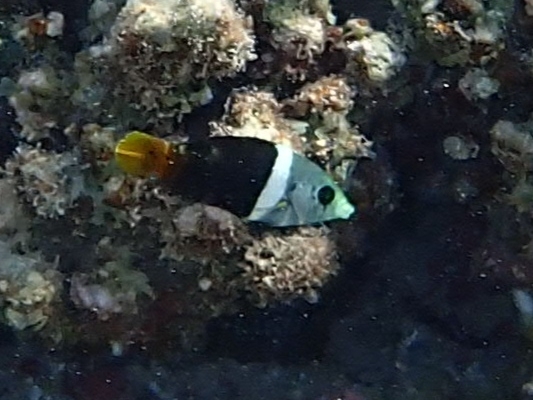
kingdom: Animalia
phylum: Chordata
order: Perciformes
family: Labridae
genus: Hemigymnus
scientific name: Hemigymnus melapterus
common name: Blackeye thicklip
